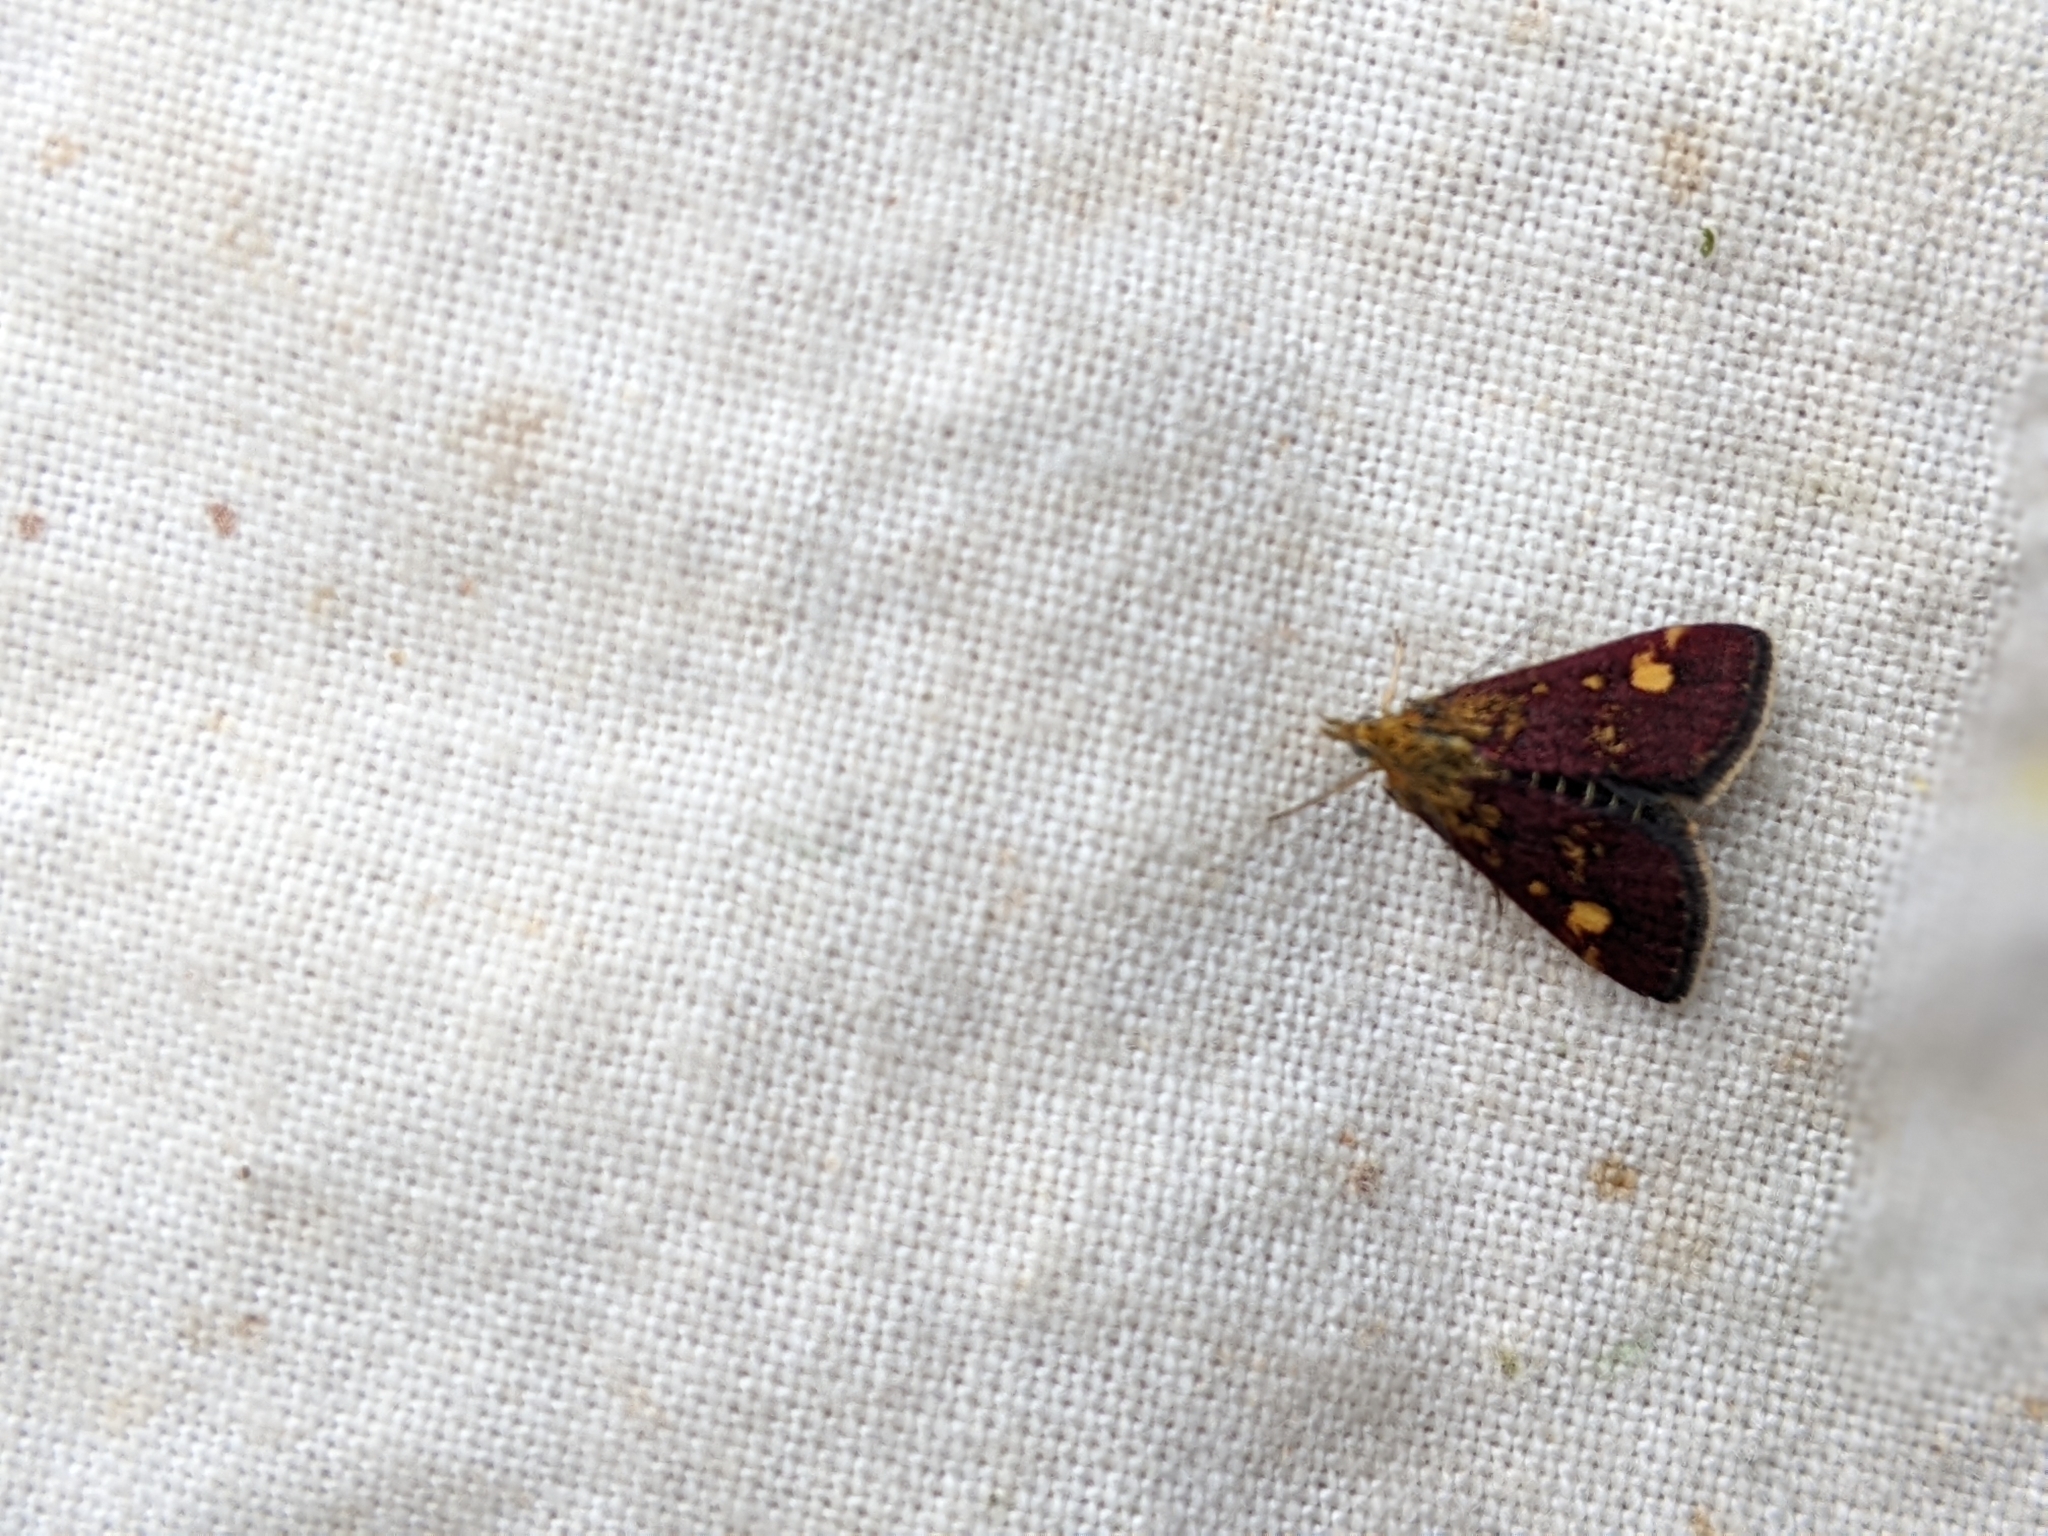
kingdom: Animalia
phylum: Arthropoda
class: Insecta
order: Lepidoptera
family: Crambidae
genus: Pyrausta
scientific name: Pyrausta aurata
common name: Small purple & gold
